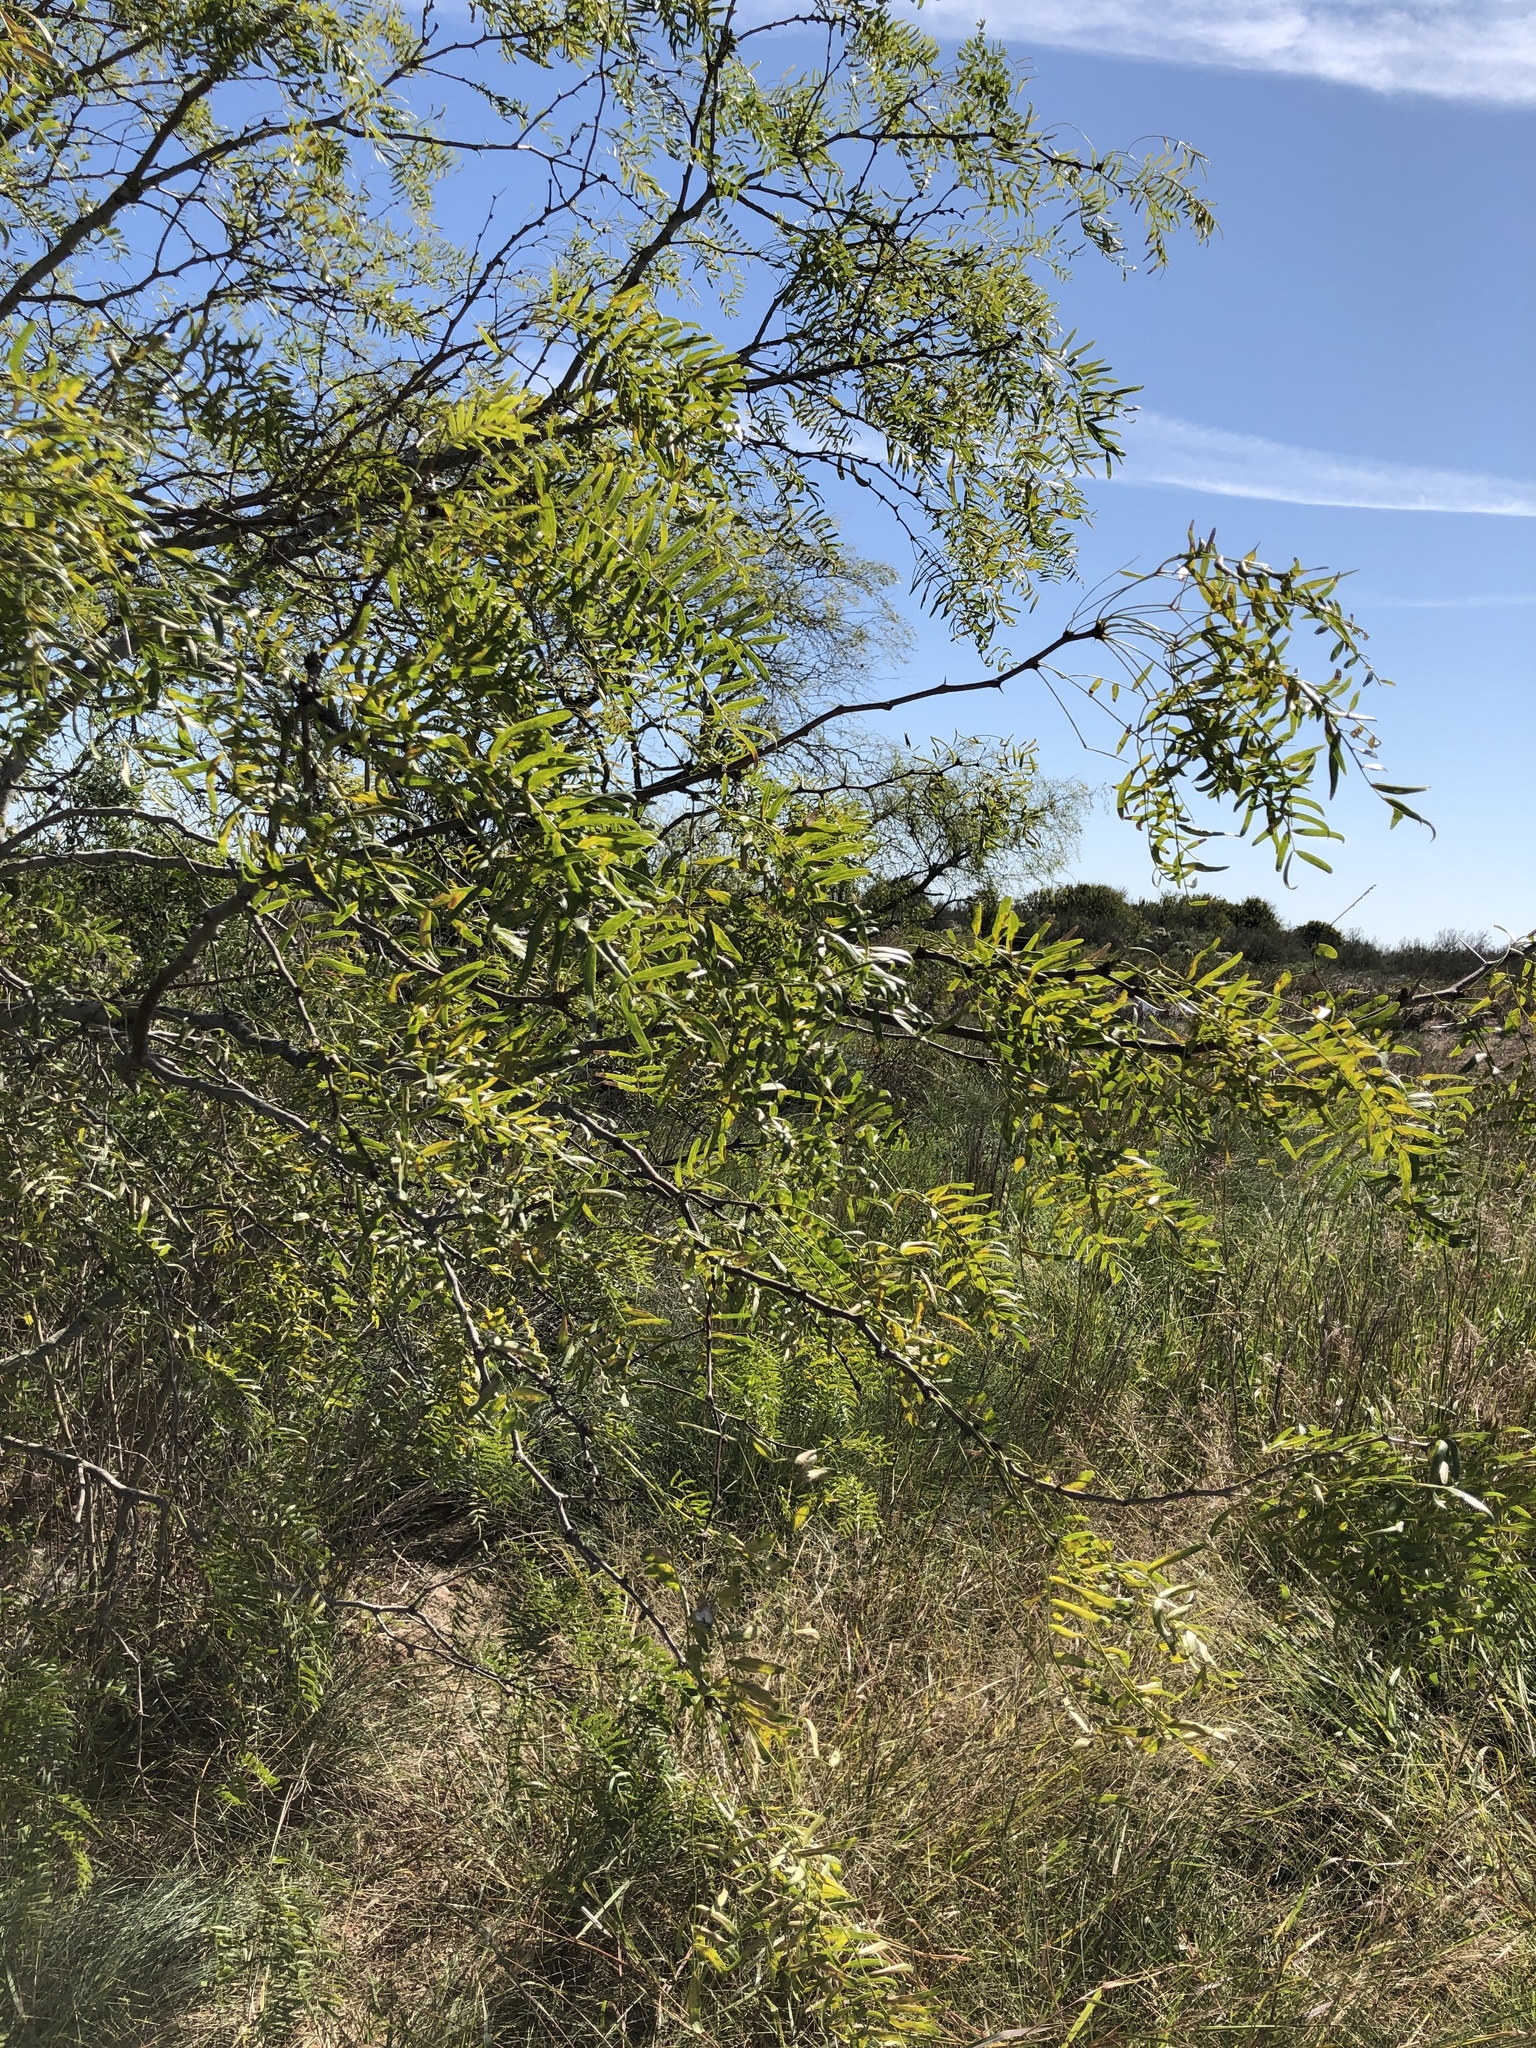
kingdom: Plantae
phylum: Tracheophyta
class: Magnoliopsida
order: Fabales
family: Fabaceae
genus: Prosopis
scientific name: Prosopis glandulosa
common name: Honey mesquite
